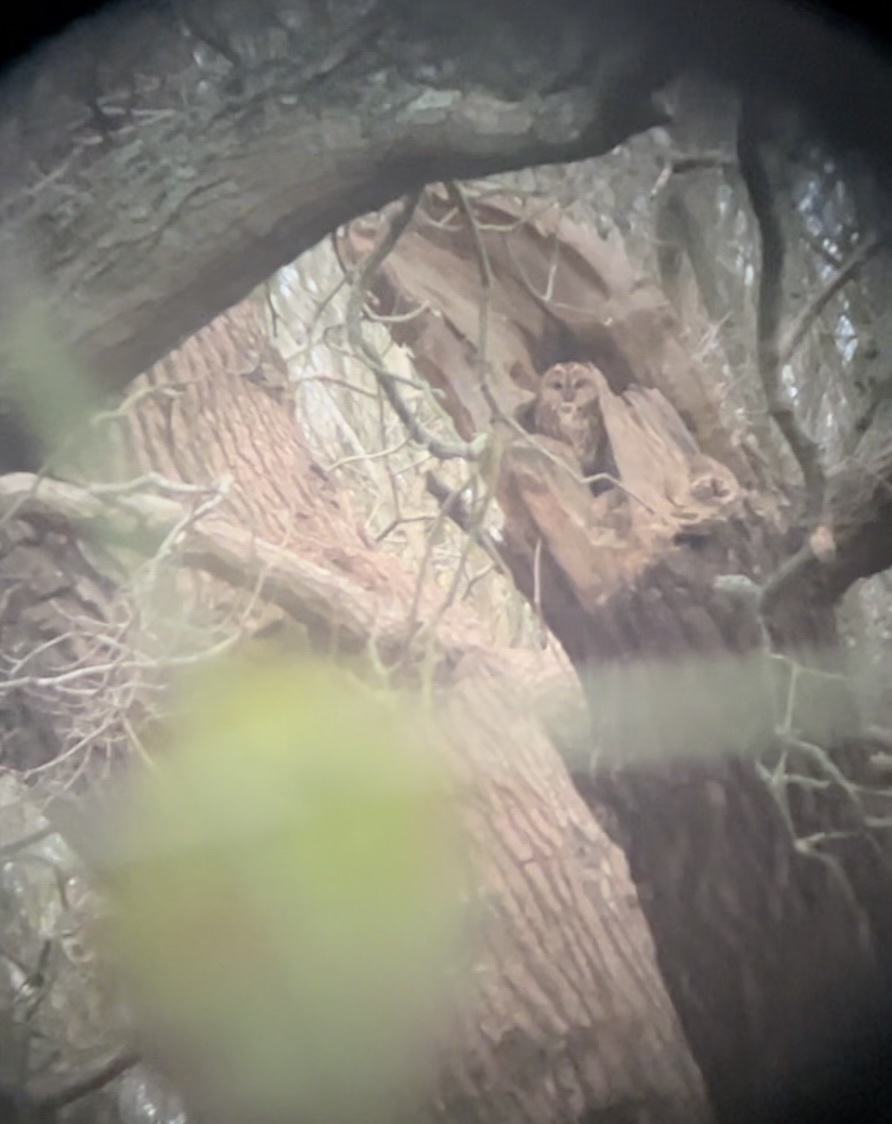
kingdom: Animalia
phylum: Chordata
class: Aves
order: Strigiformes
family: Strigidae
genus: Strix
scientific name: Strix aluco
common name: Tawny owl
